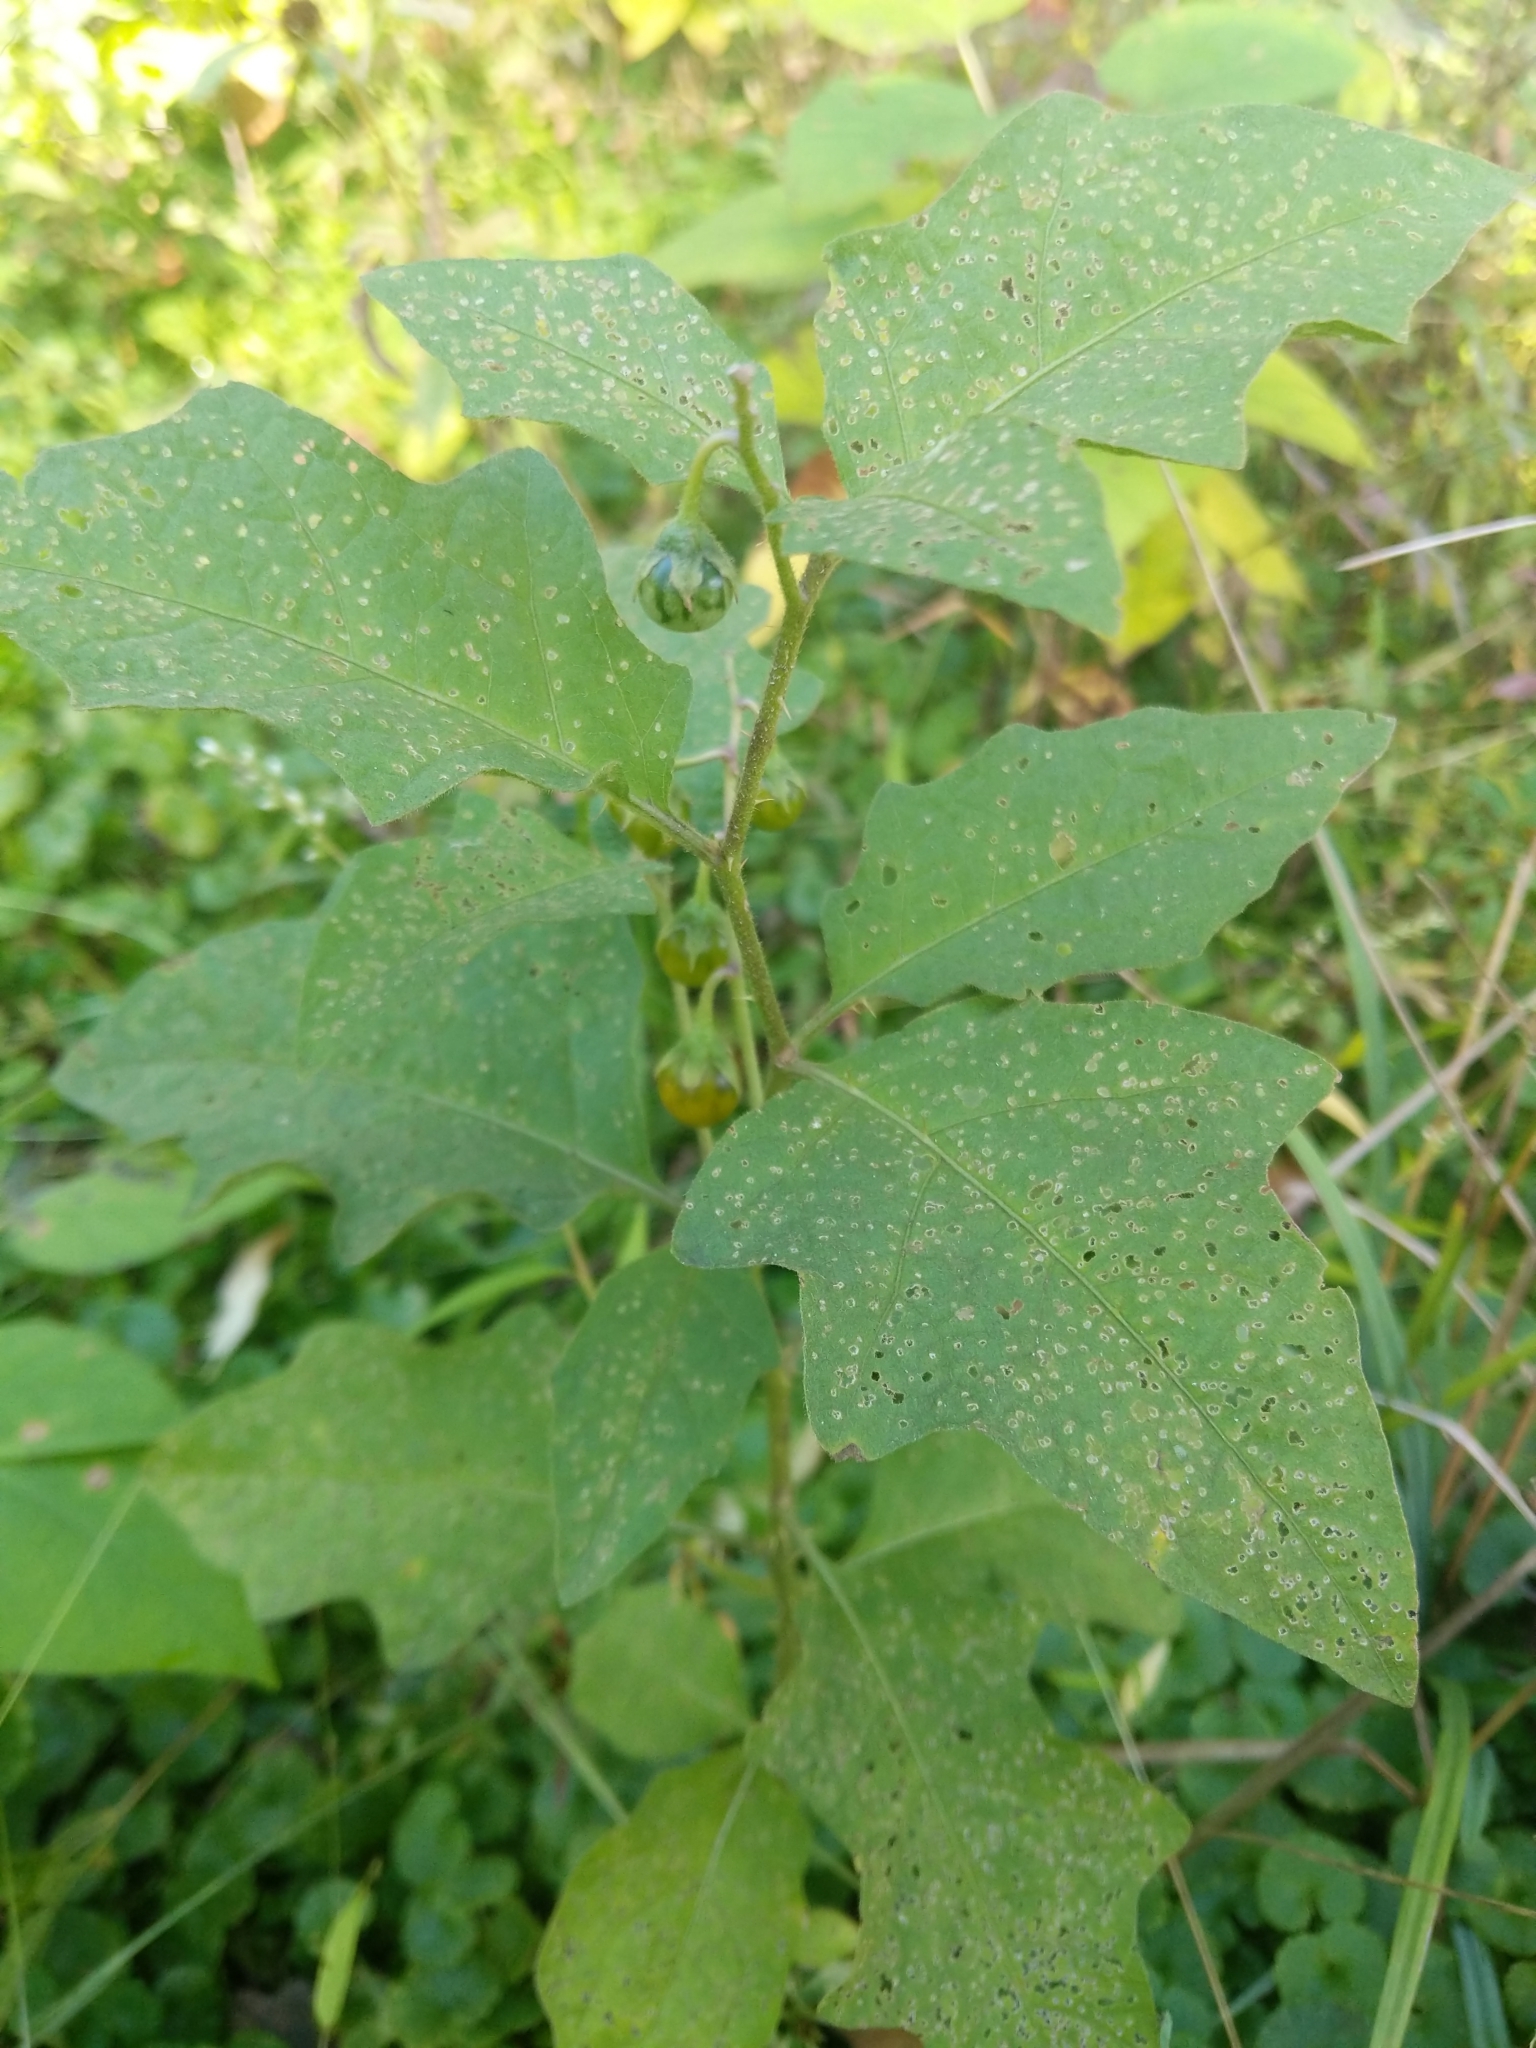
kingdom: Plantae
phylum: Tracheophyta
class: Magnoliopsida
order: Solanales
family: Solanaceae
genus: Solanum
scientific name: Solanum carolinense
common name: Horse-nettle
